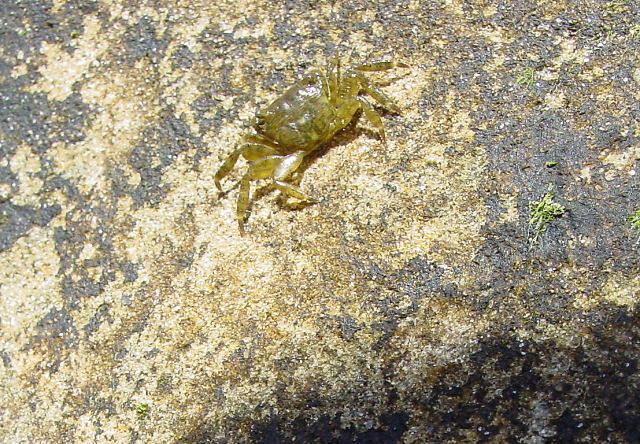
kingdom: Animalia
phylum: Arthropoda
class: Malacostraca
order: Decapoda
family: Grapsidae
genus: Pachygrapsus
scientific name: Pachygrapsus crassipes
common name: Striped shore crab
